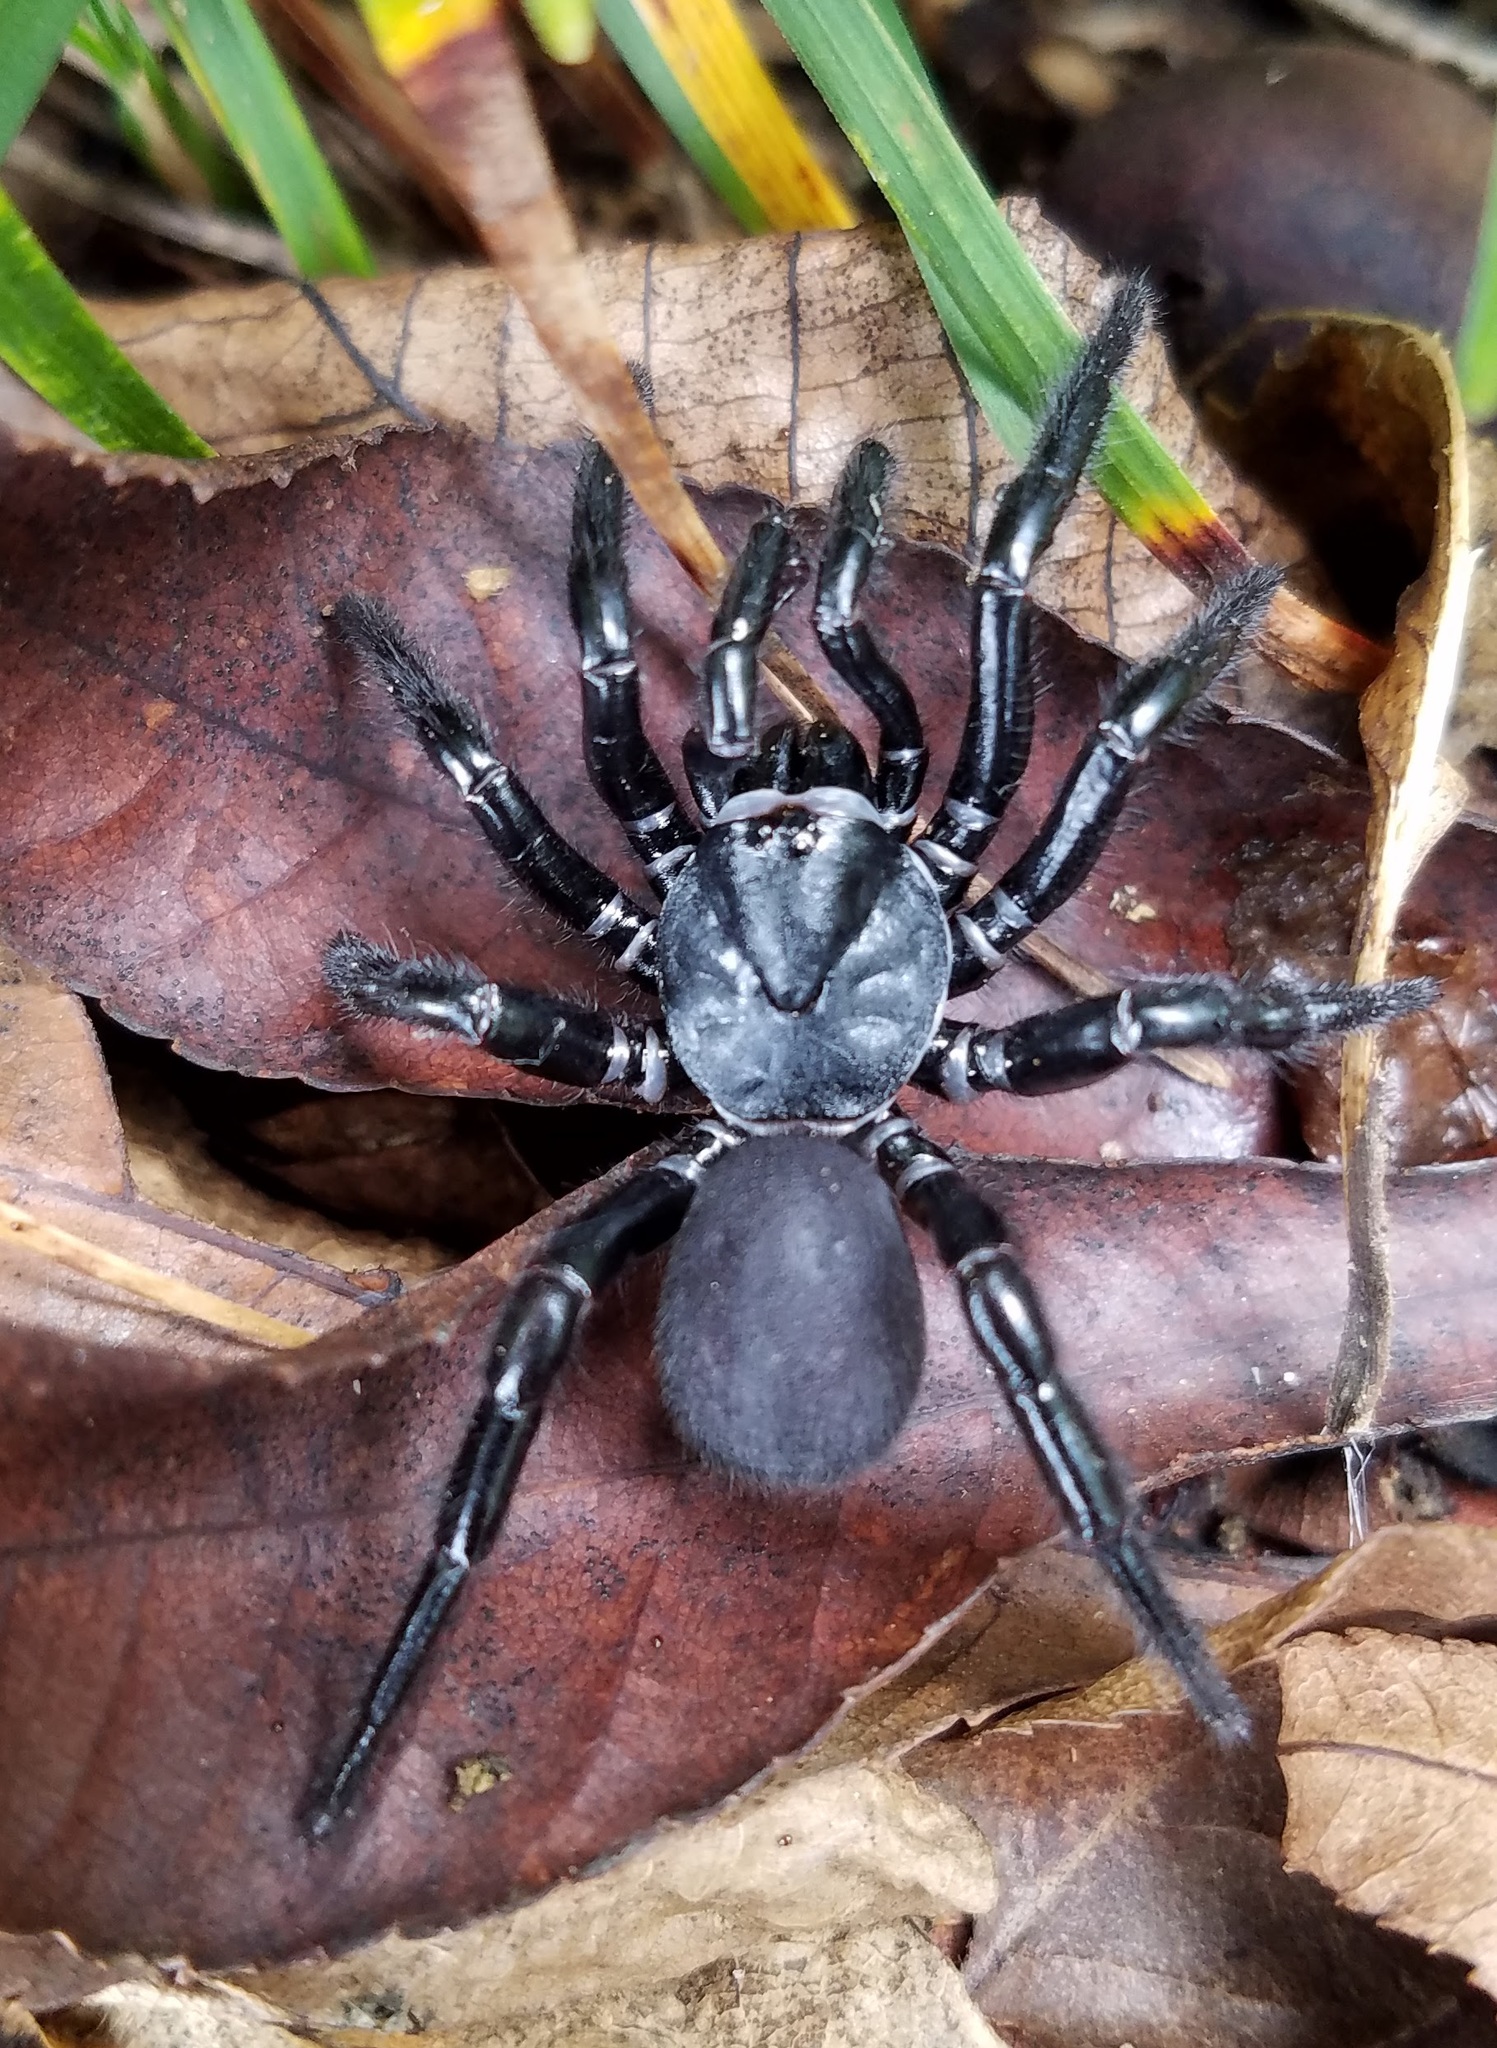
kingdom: Animalia
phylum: Arthropoda
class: Arachnida
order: Araneae
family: Halonoproctidae
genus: Ummidia
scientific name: Ummidia audouini
